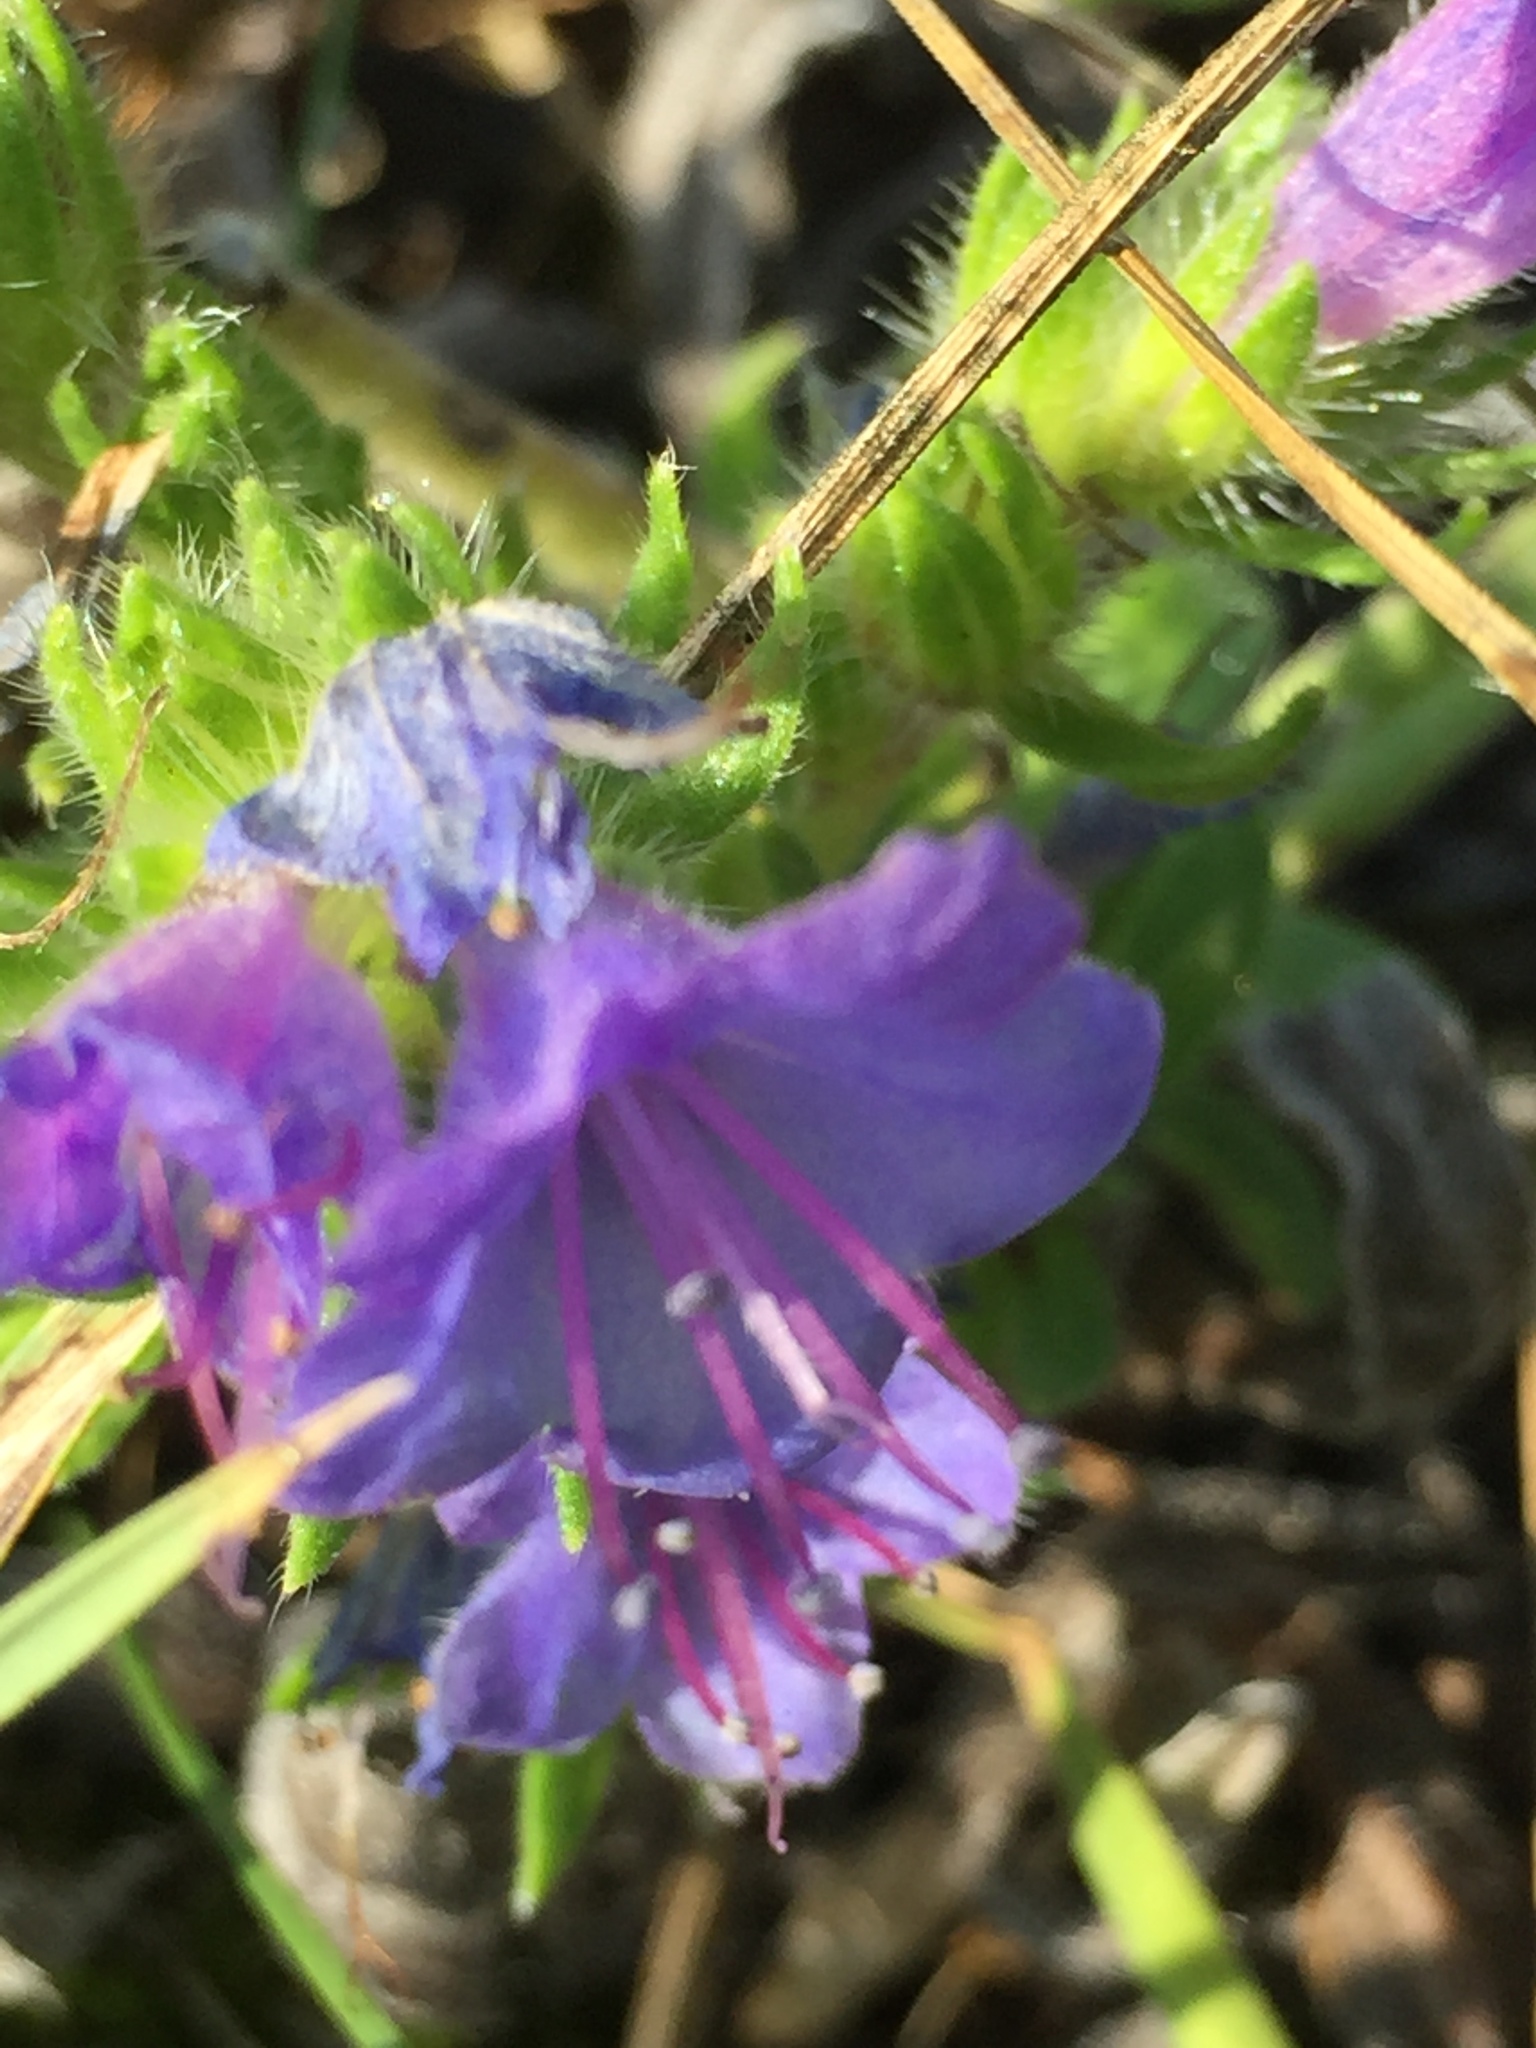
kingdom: Plantae
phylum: Tracheophyta
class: Magnoliopsida
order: Boraginales
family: Boraginaceae
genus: Echium
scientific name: Echium vulgare
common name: Common viper's bugloss
